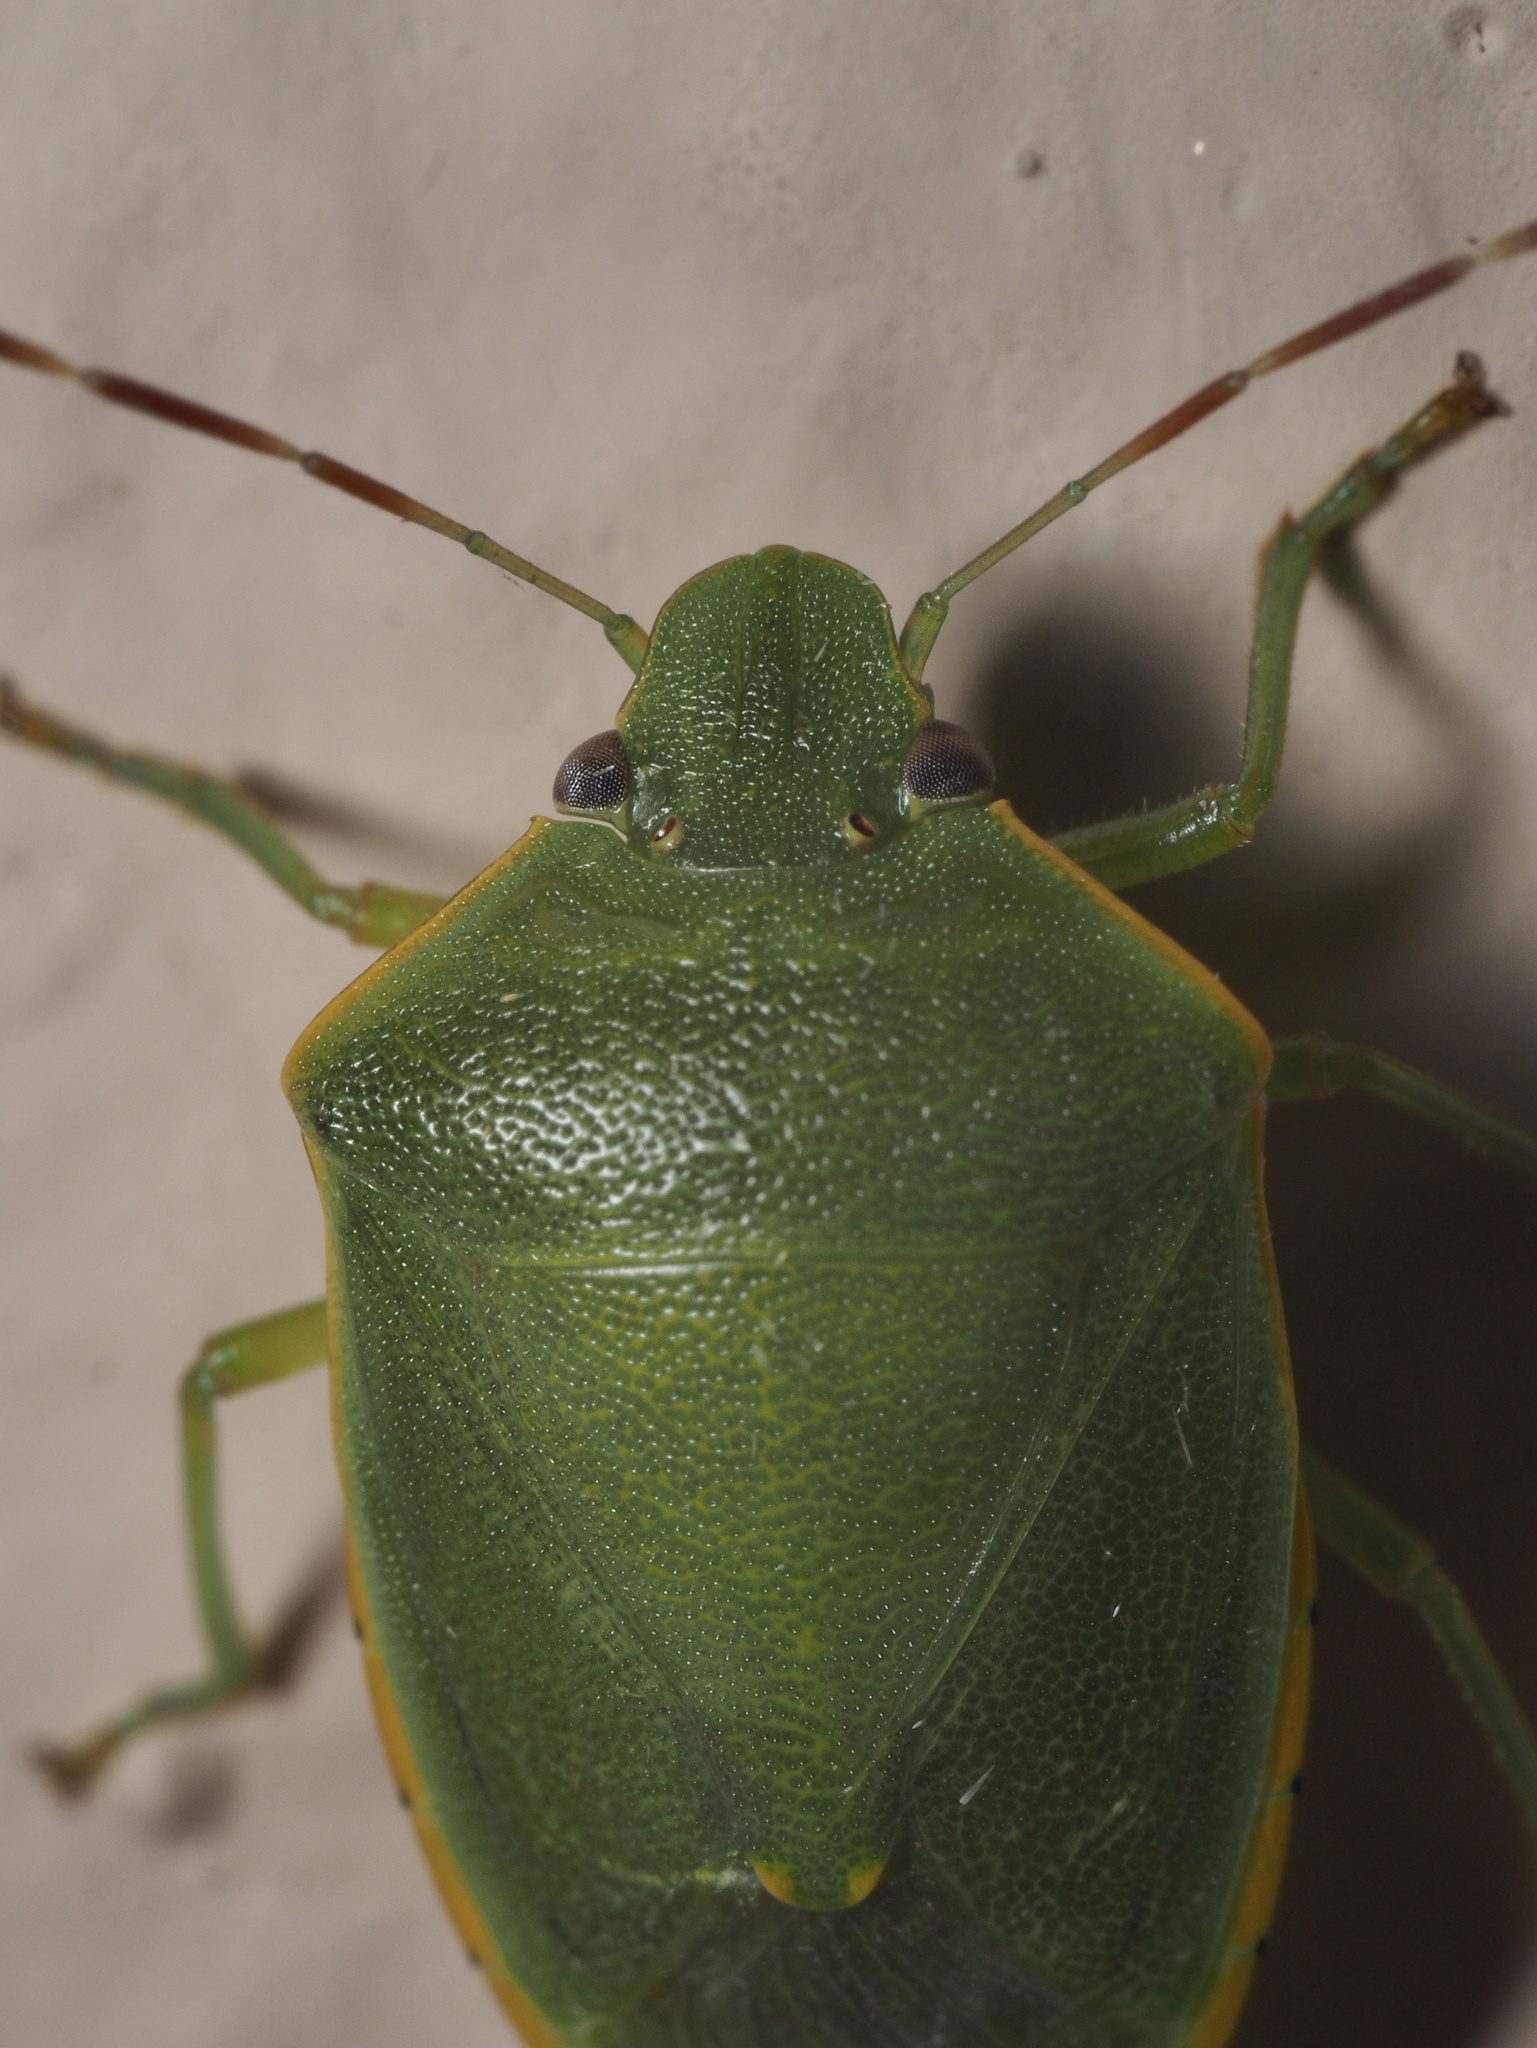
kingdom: Animalia
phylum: Arthropoda
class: Insecta
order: Hemiptera
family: Pentatomidae
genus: Acrosternum
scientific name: Acrosternum heegeri
